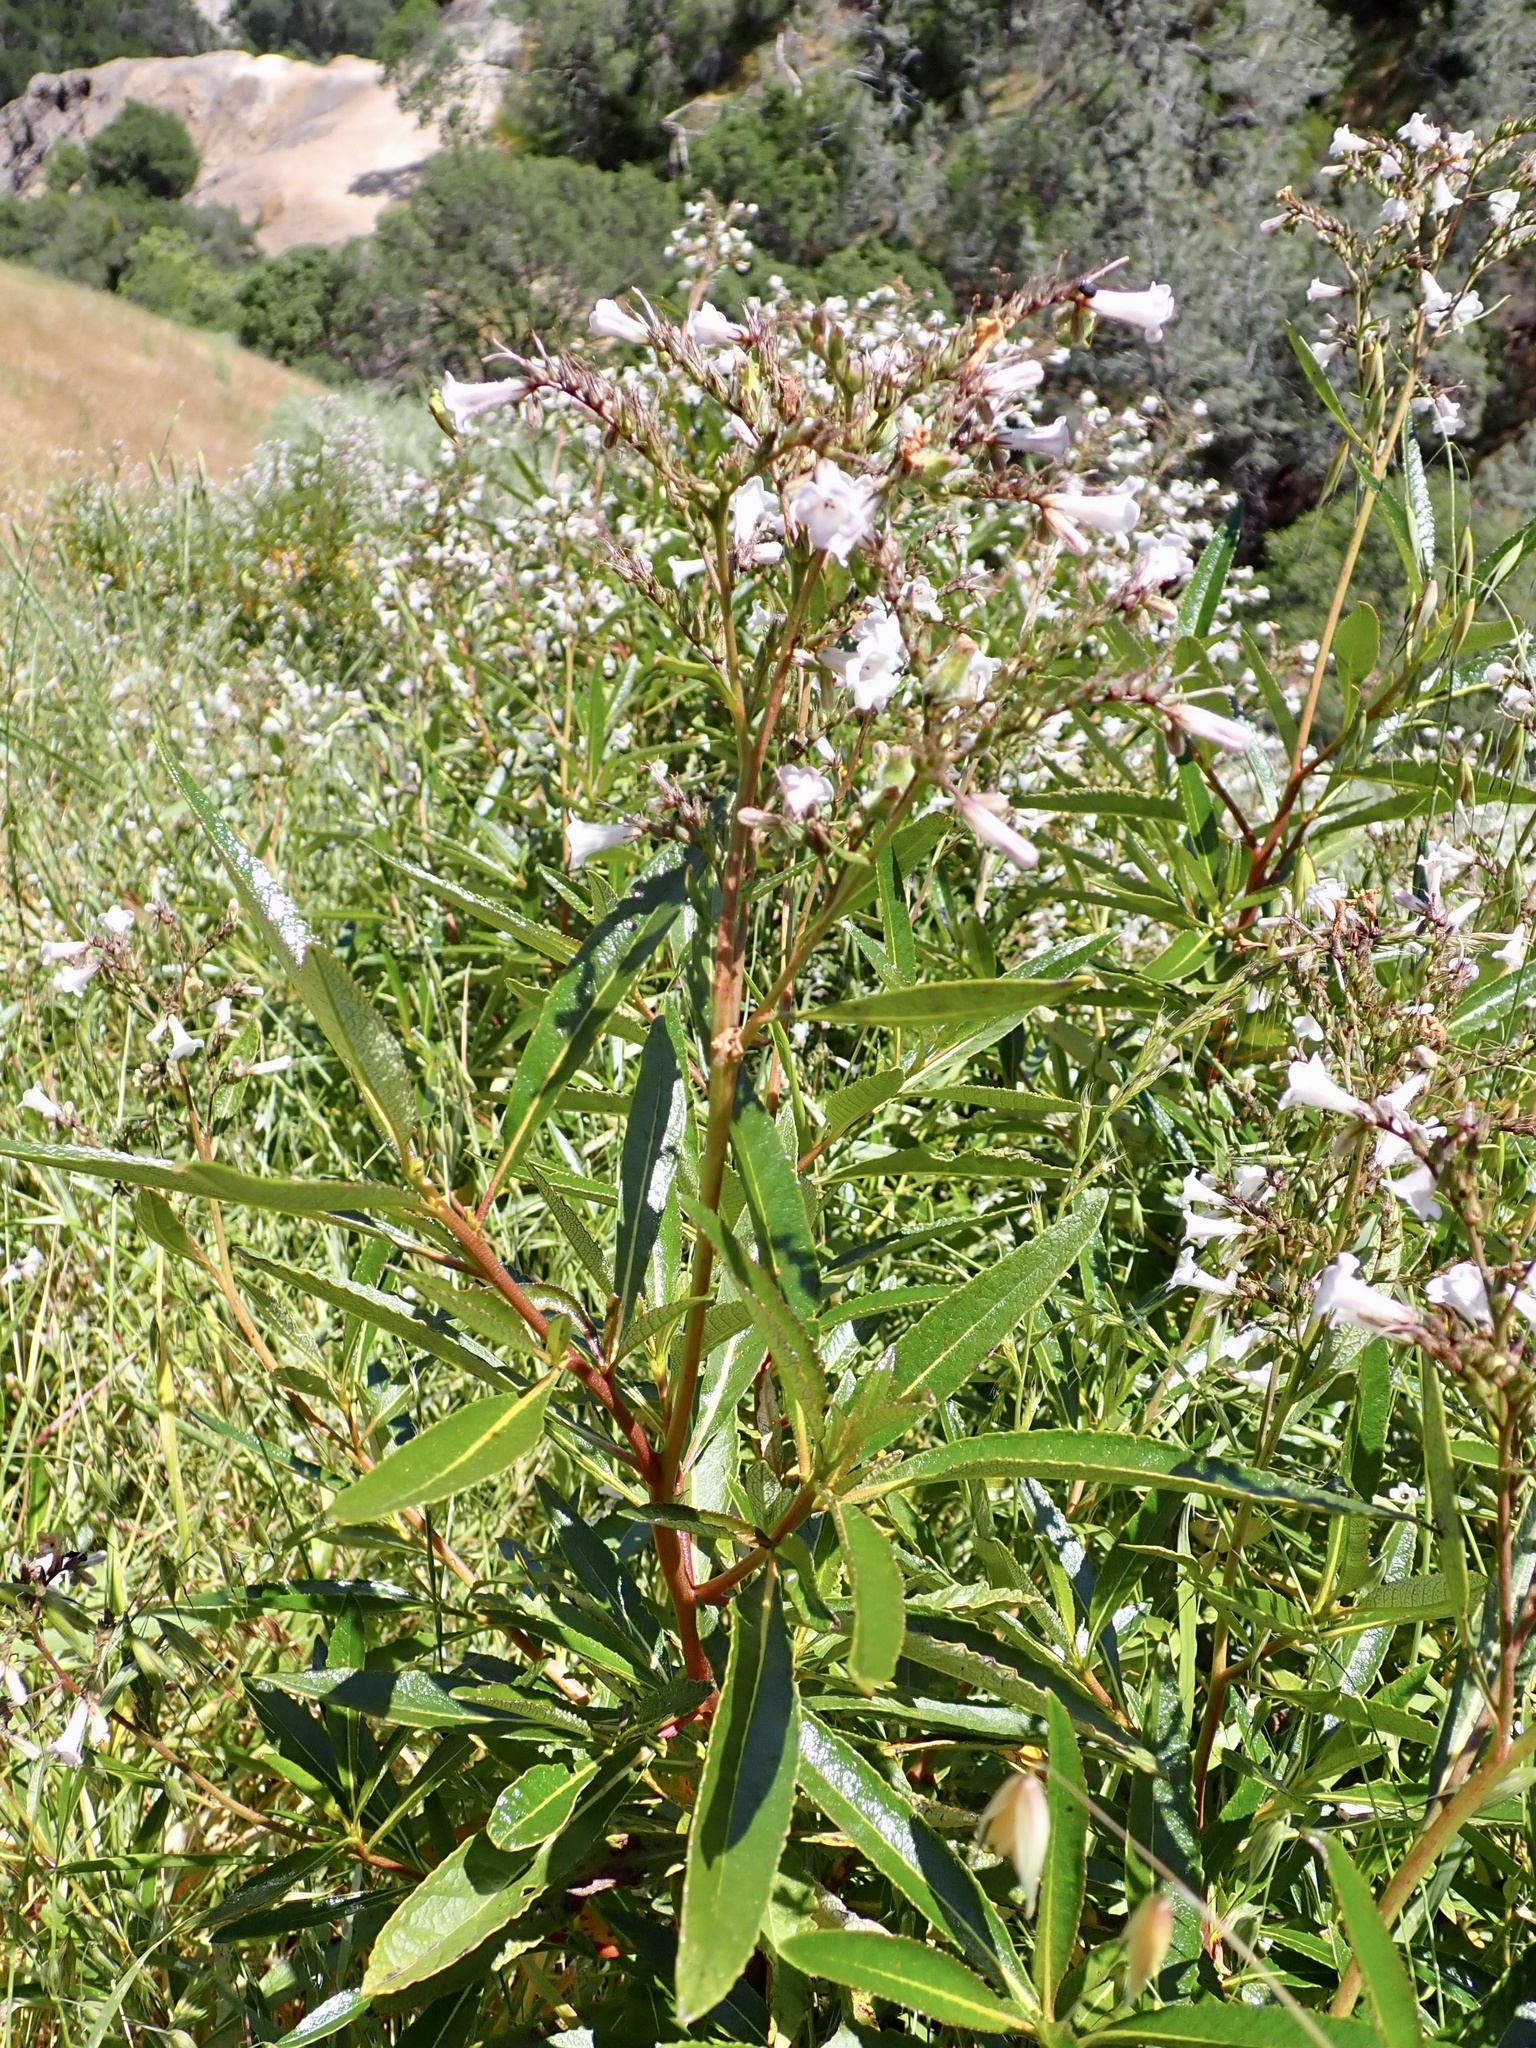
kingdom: Plantae
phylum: Tracheophyta
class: Magnoliopsida
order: Boraginales
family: Namaceae
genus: Eriodictyon
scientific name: Eriodictyon californicum
